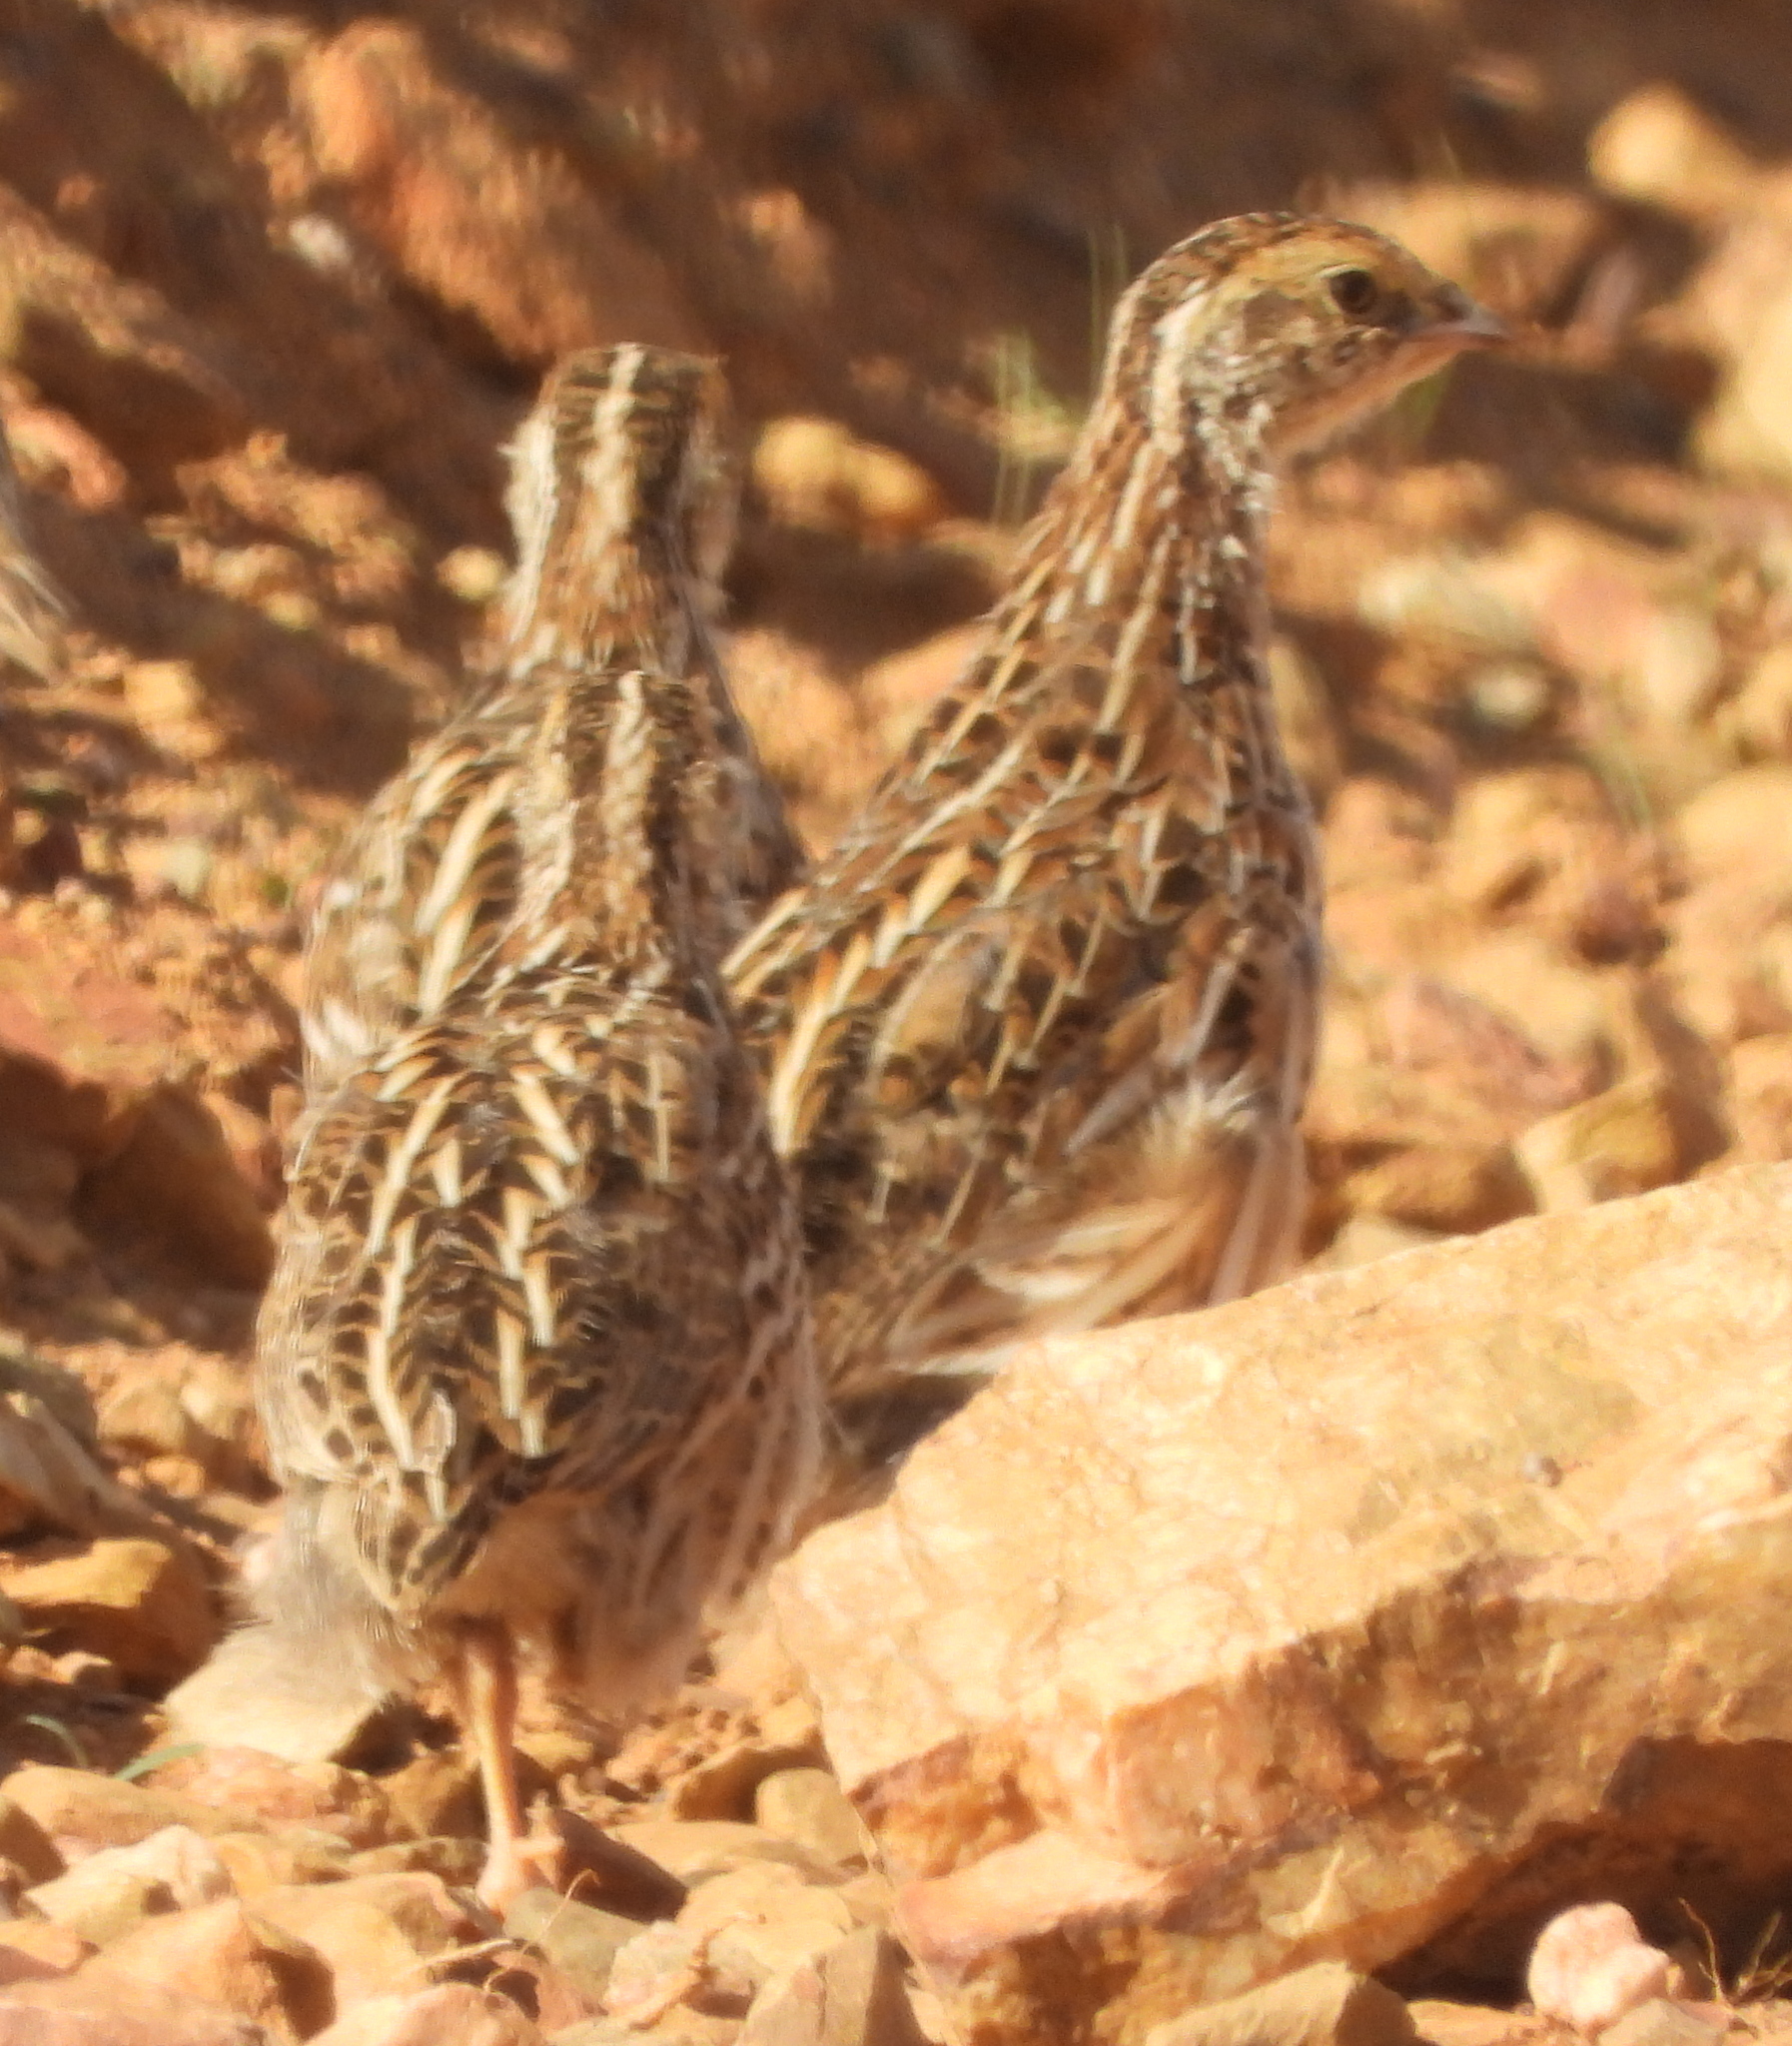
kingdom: Animalia
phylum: Chordata
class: Aves
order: Galliformes
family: Phasianidae
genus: Coturnix
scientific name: Coturnix coturnix
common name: Common quail
